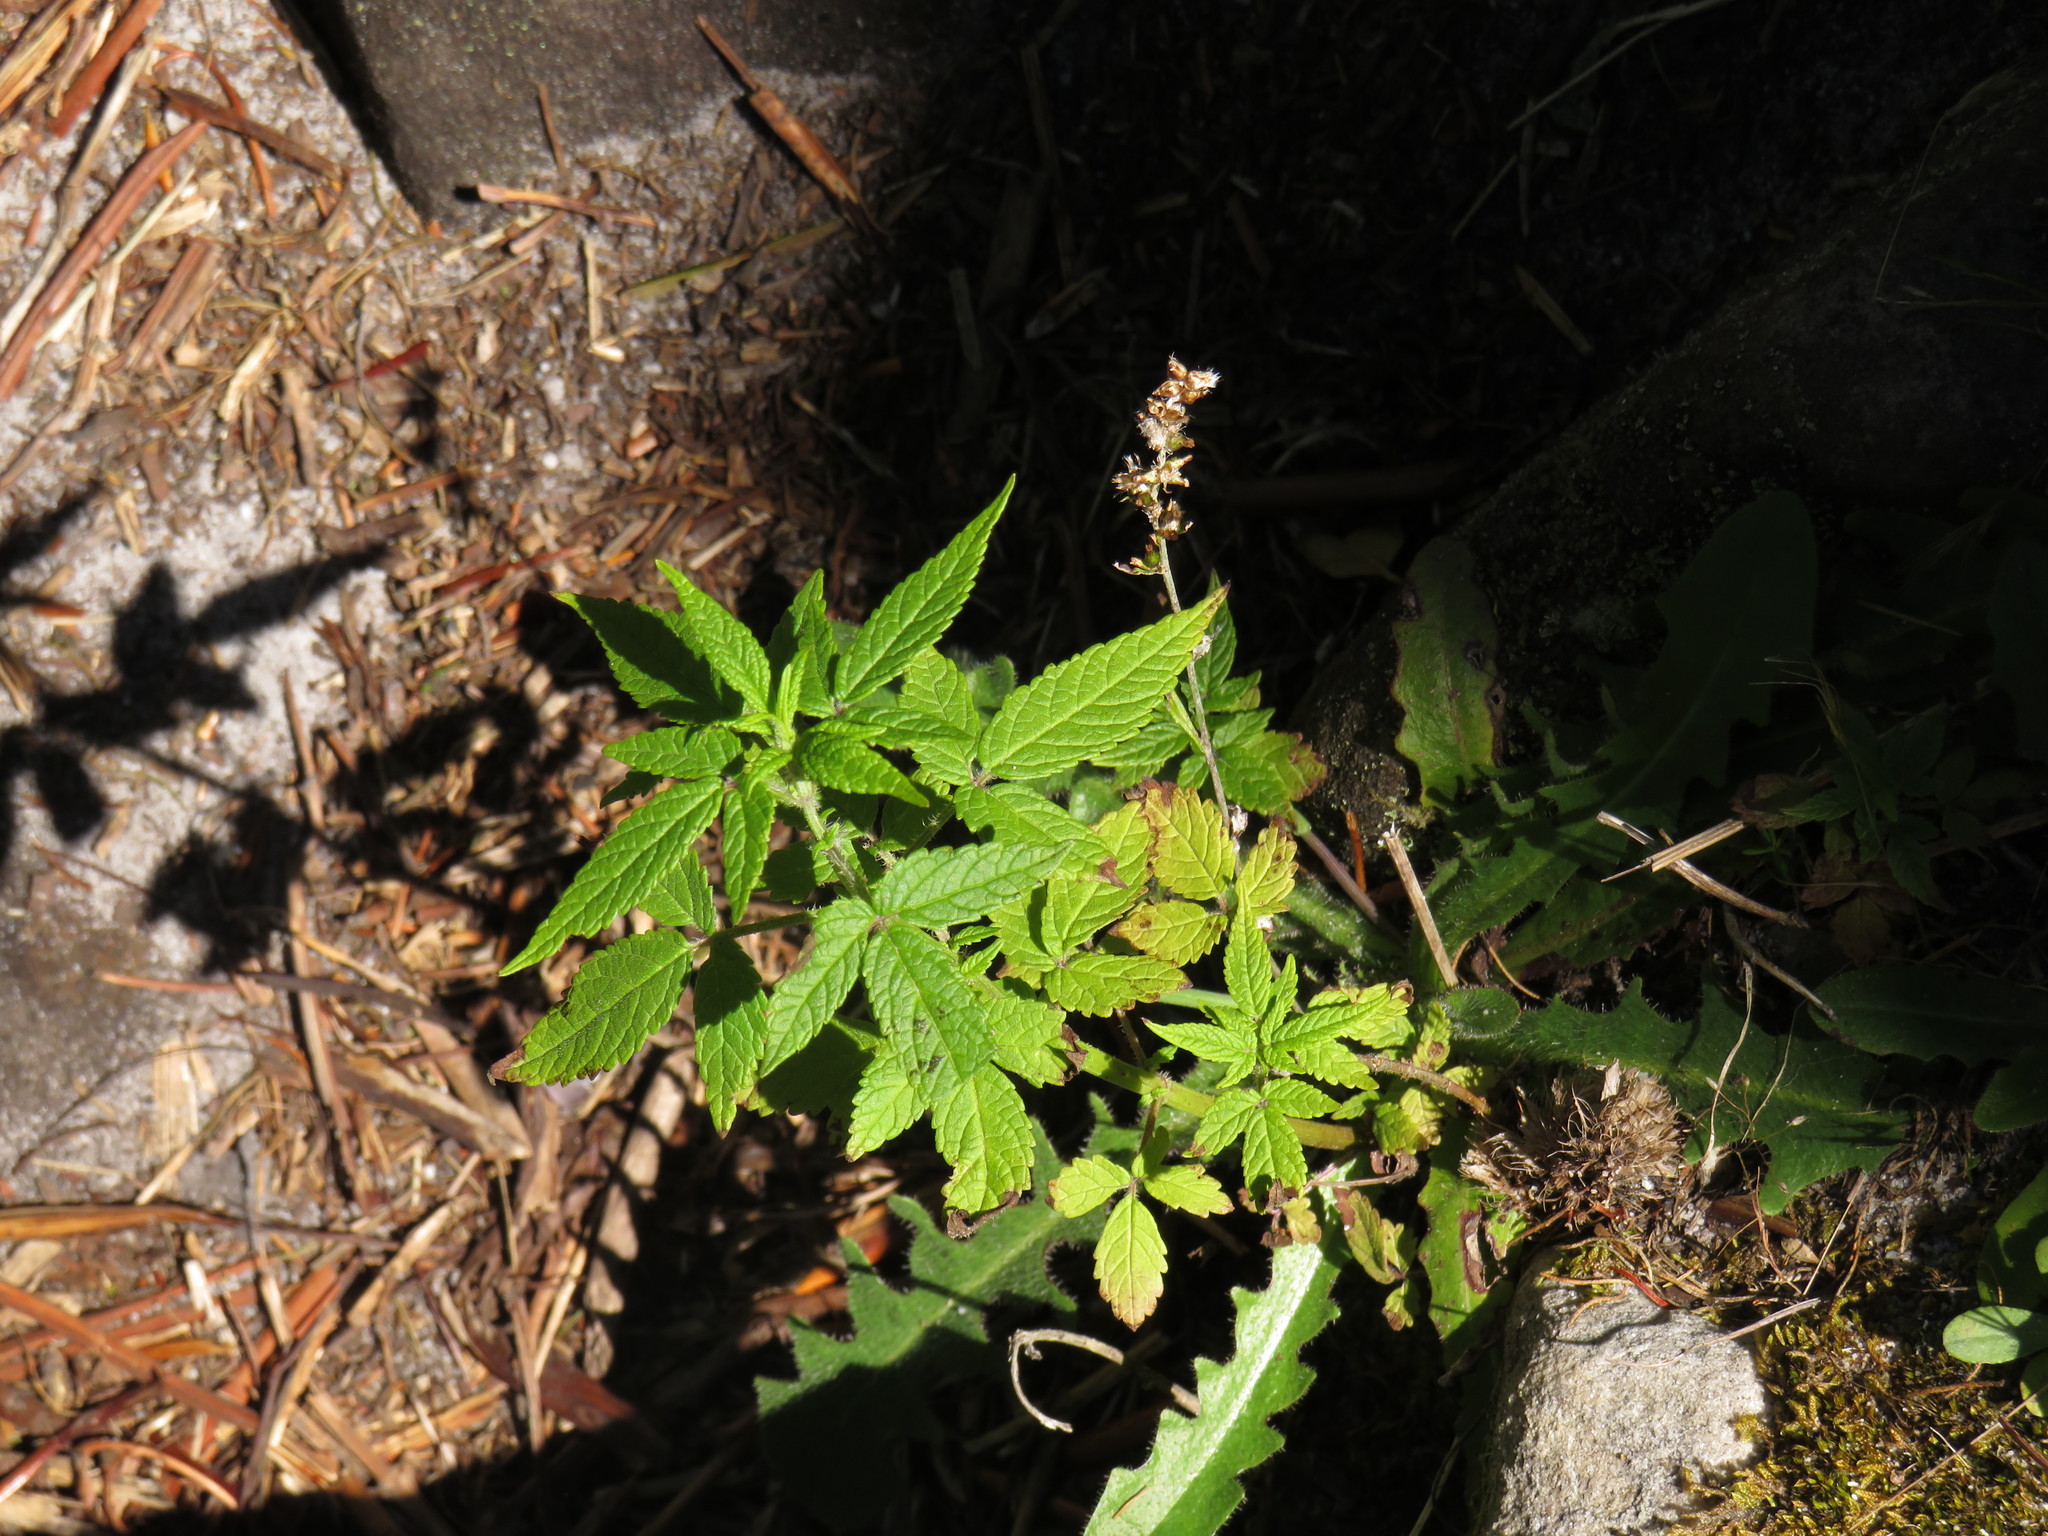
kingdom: Plantae
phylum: Tracheophyta
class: Magnoliopsida
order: Lamiales
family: Lamiaceae
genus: Cedronella
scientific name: Cedronella canariensis
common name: Canary islands balm
